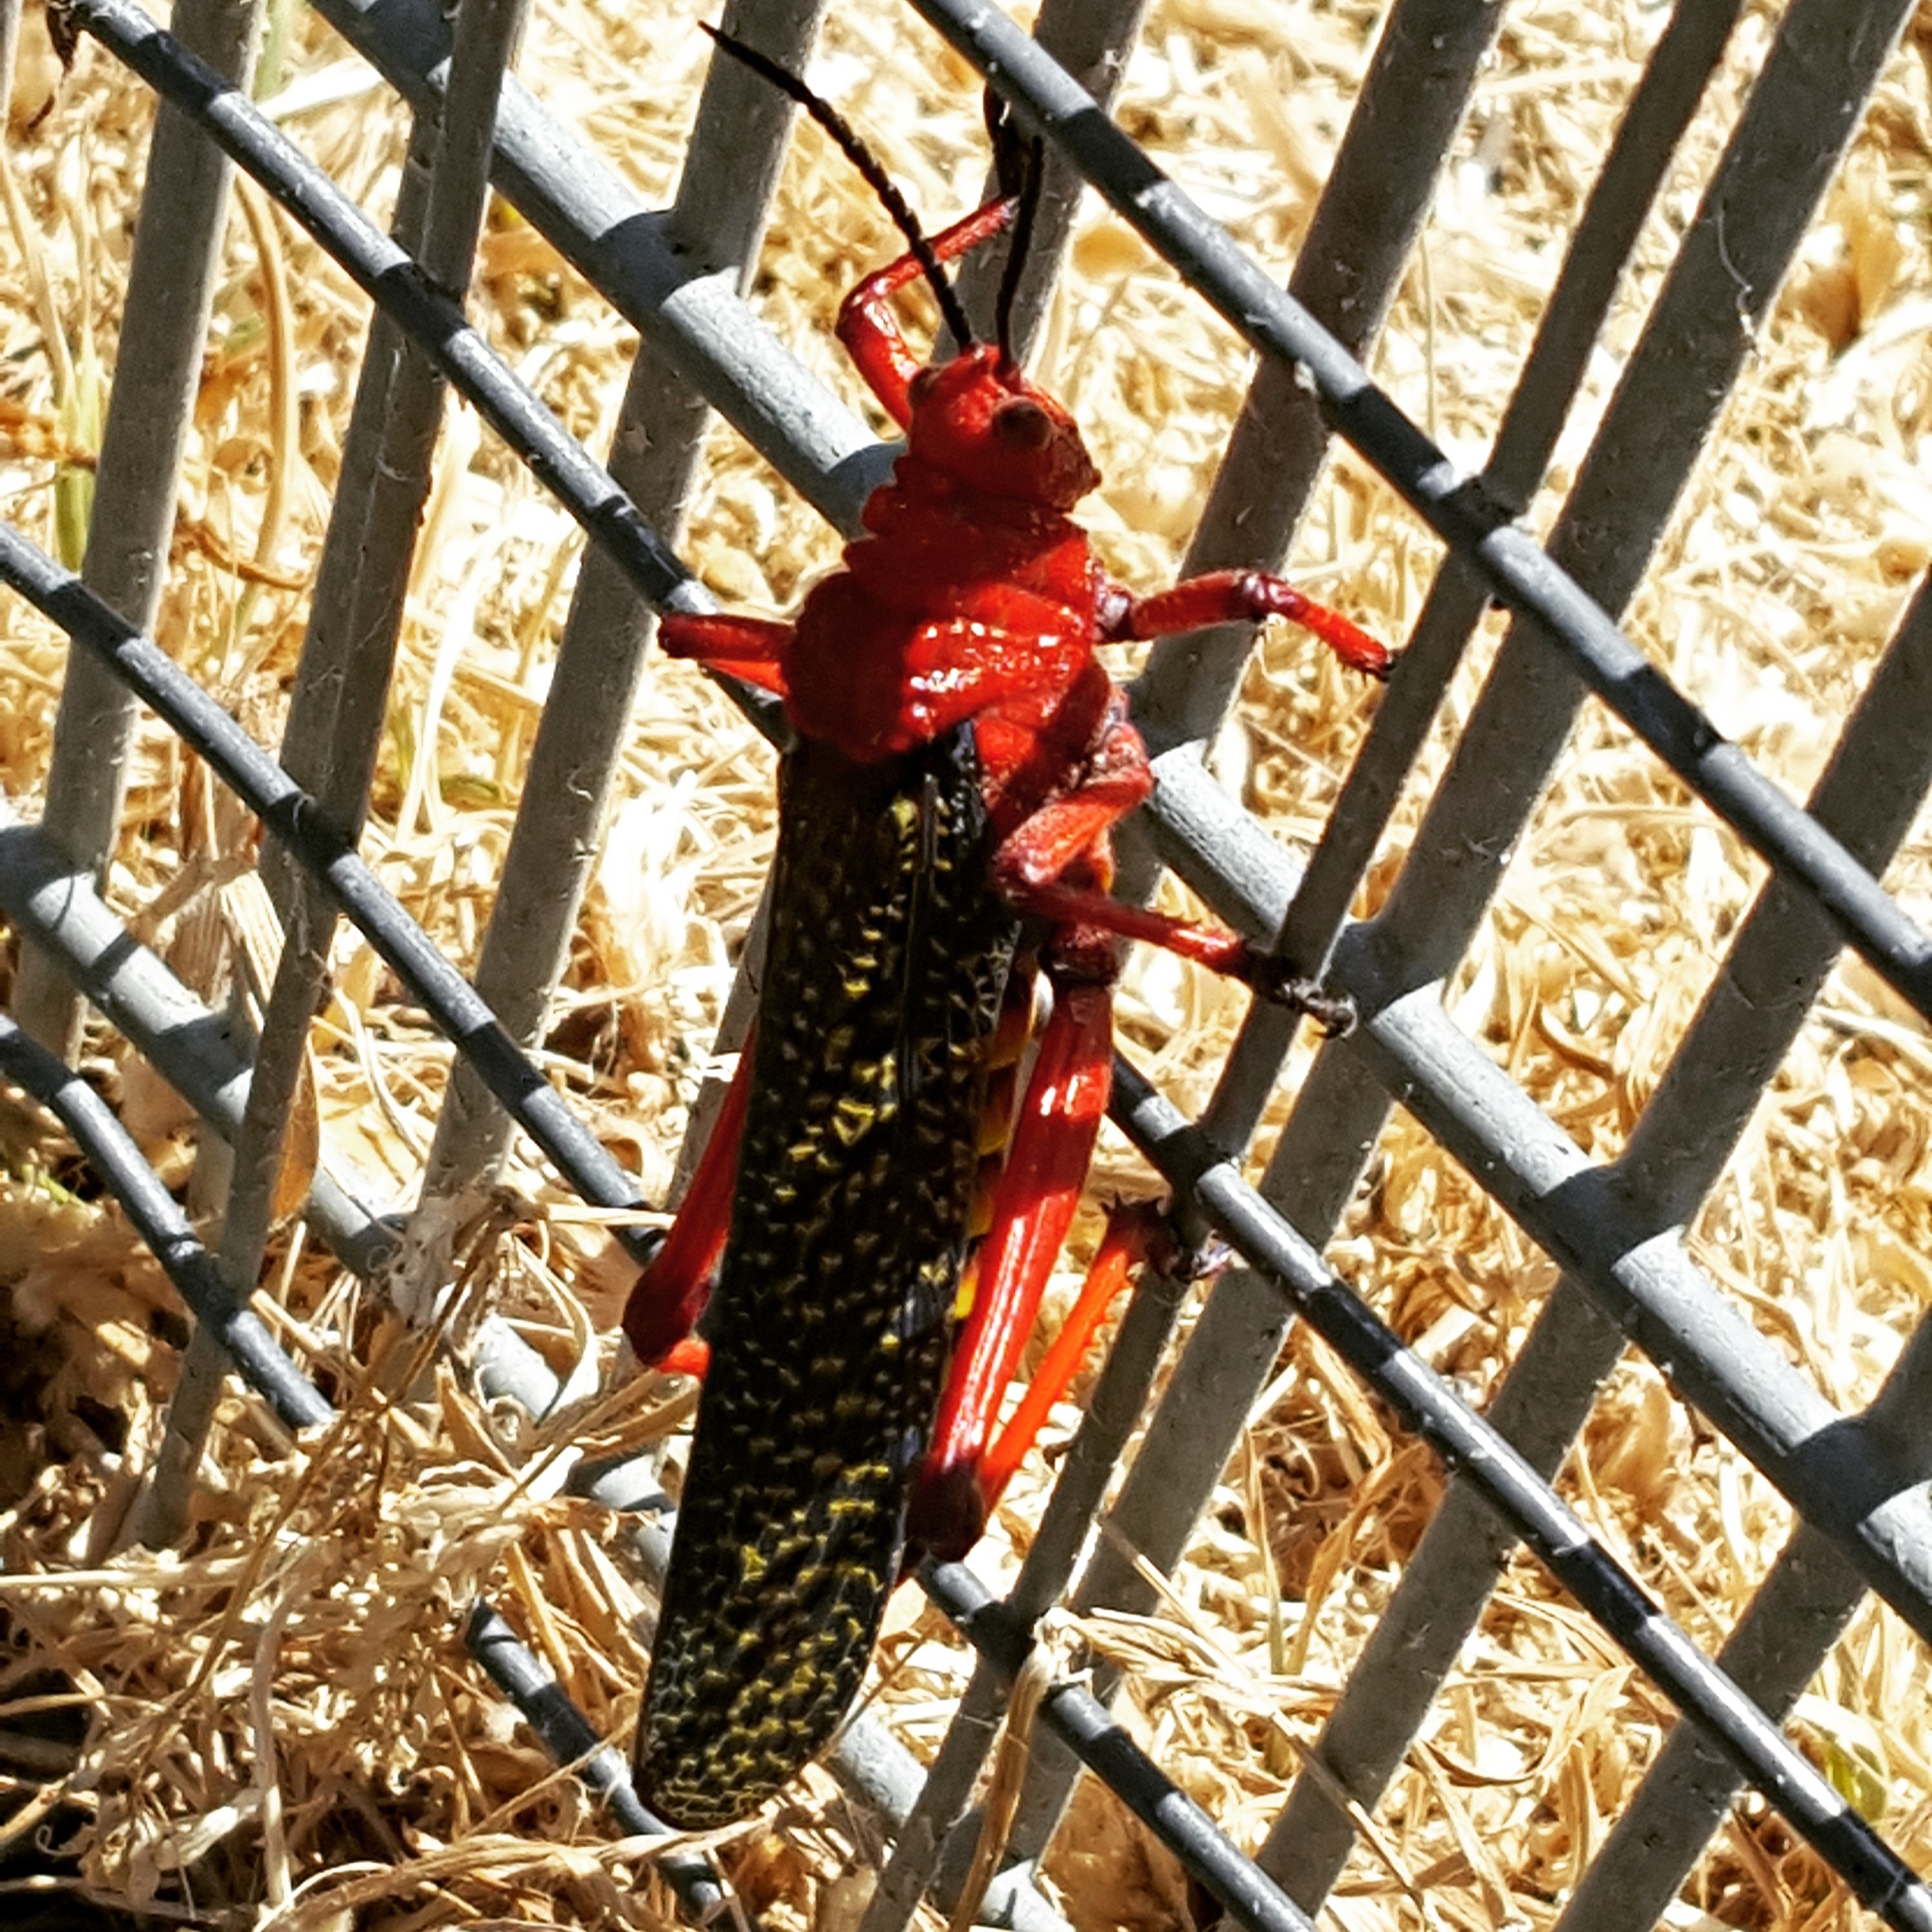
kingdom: Animalia
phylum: Arthropoda
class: Insecta
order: Orthoptera
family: Pyrgomorphidae
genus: Dictyophorus
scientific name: Dictyophorus spumans
